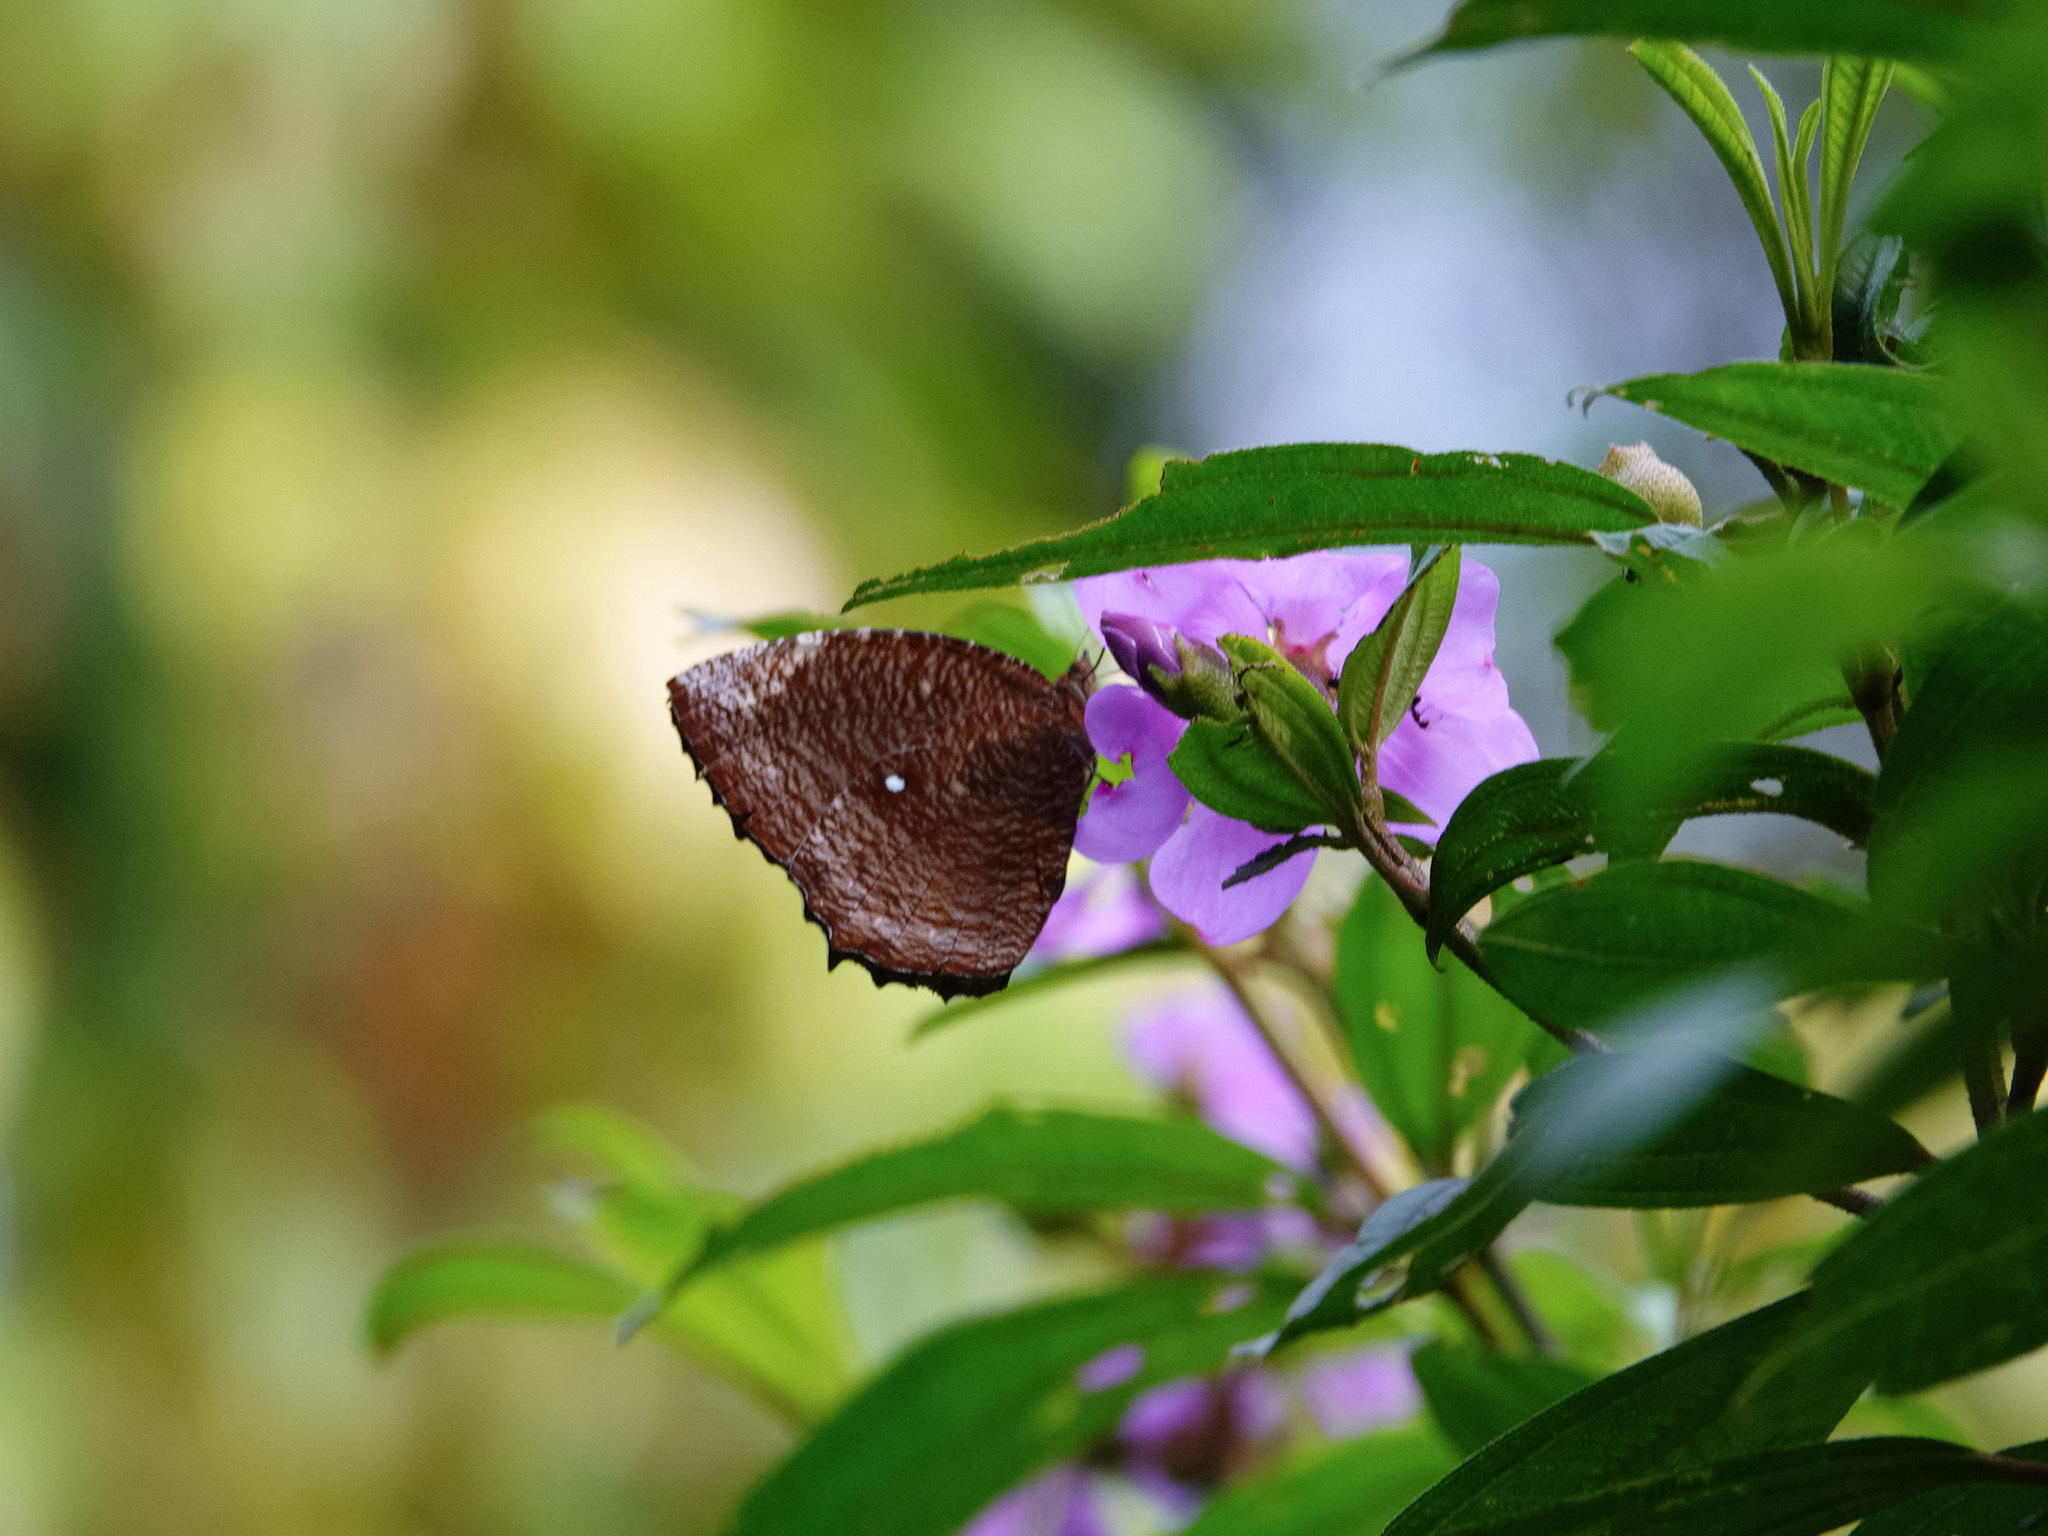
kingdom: Animalia
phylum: Arthropoda
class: Insecta
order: Lepidoptera
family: Nymphalidae
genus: Elymnias
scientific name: Elymnias hypermnestra
